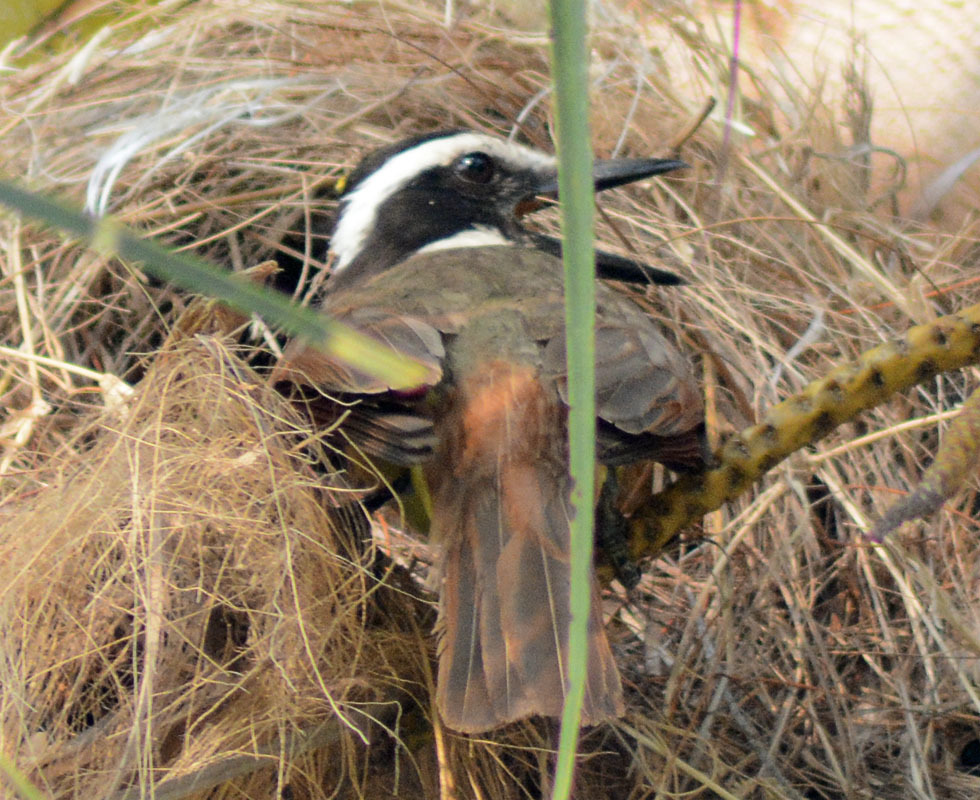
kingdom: Animalia
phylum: Chordata
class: Aves
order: Passeriformes
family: Tyrannidae
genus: Pitangus
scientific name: Pitangus sulphuratus
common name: Great kiskadee
